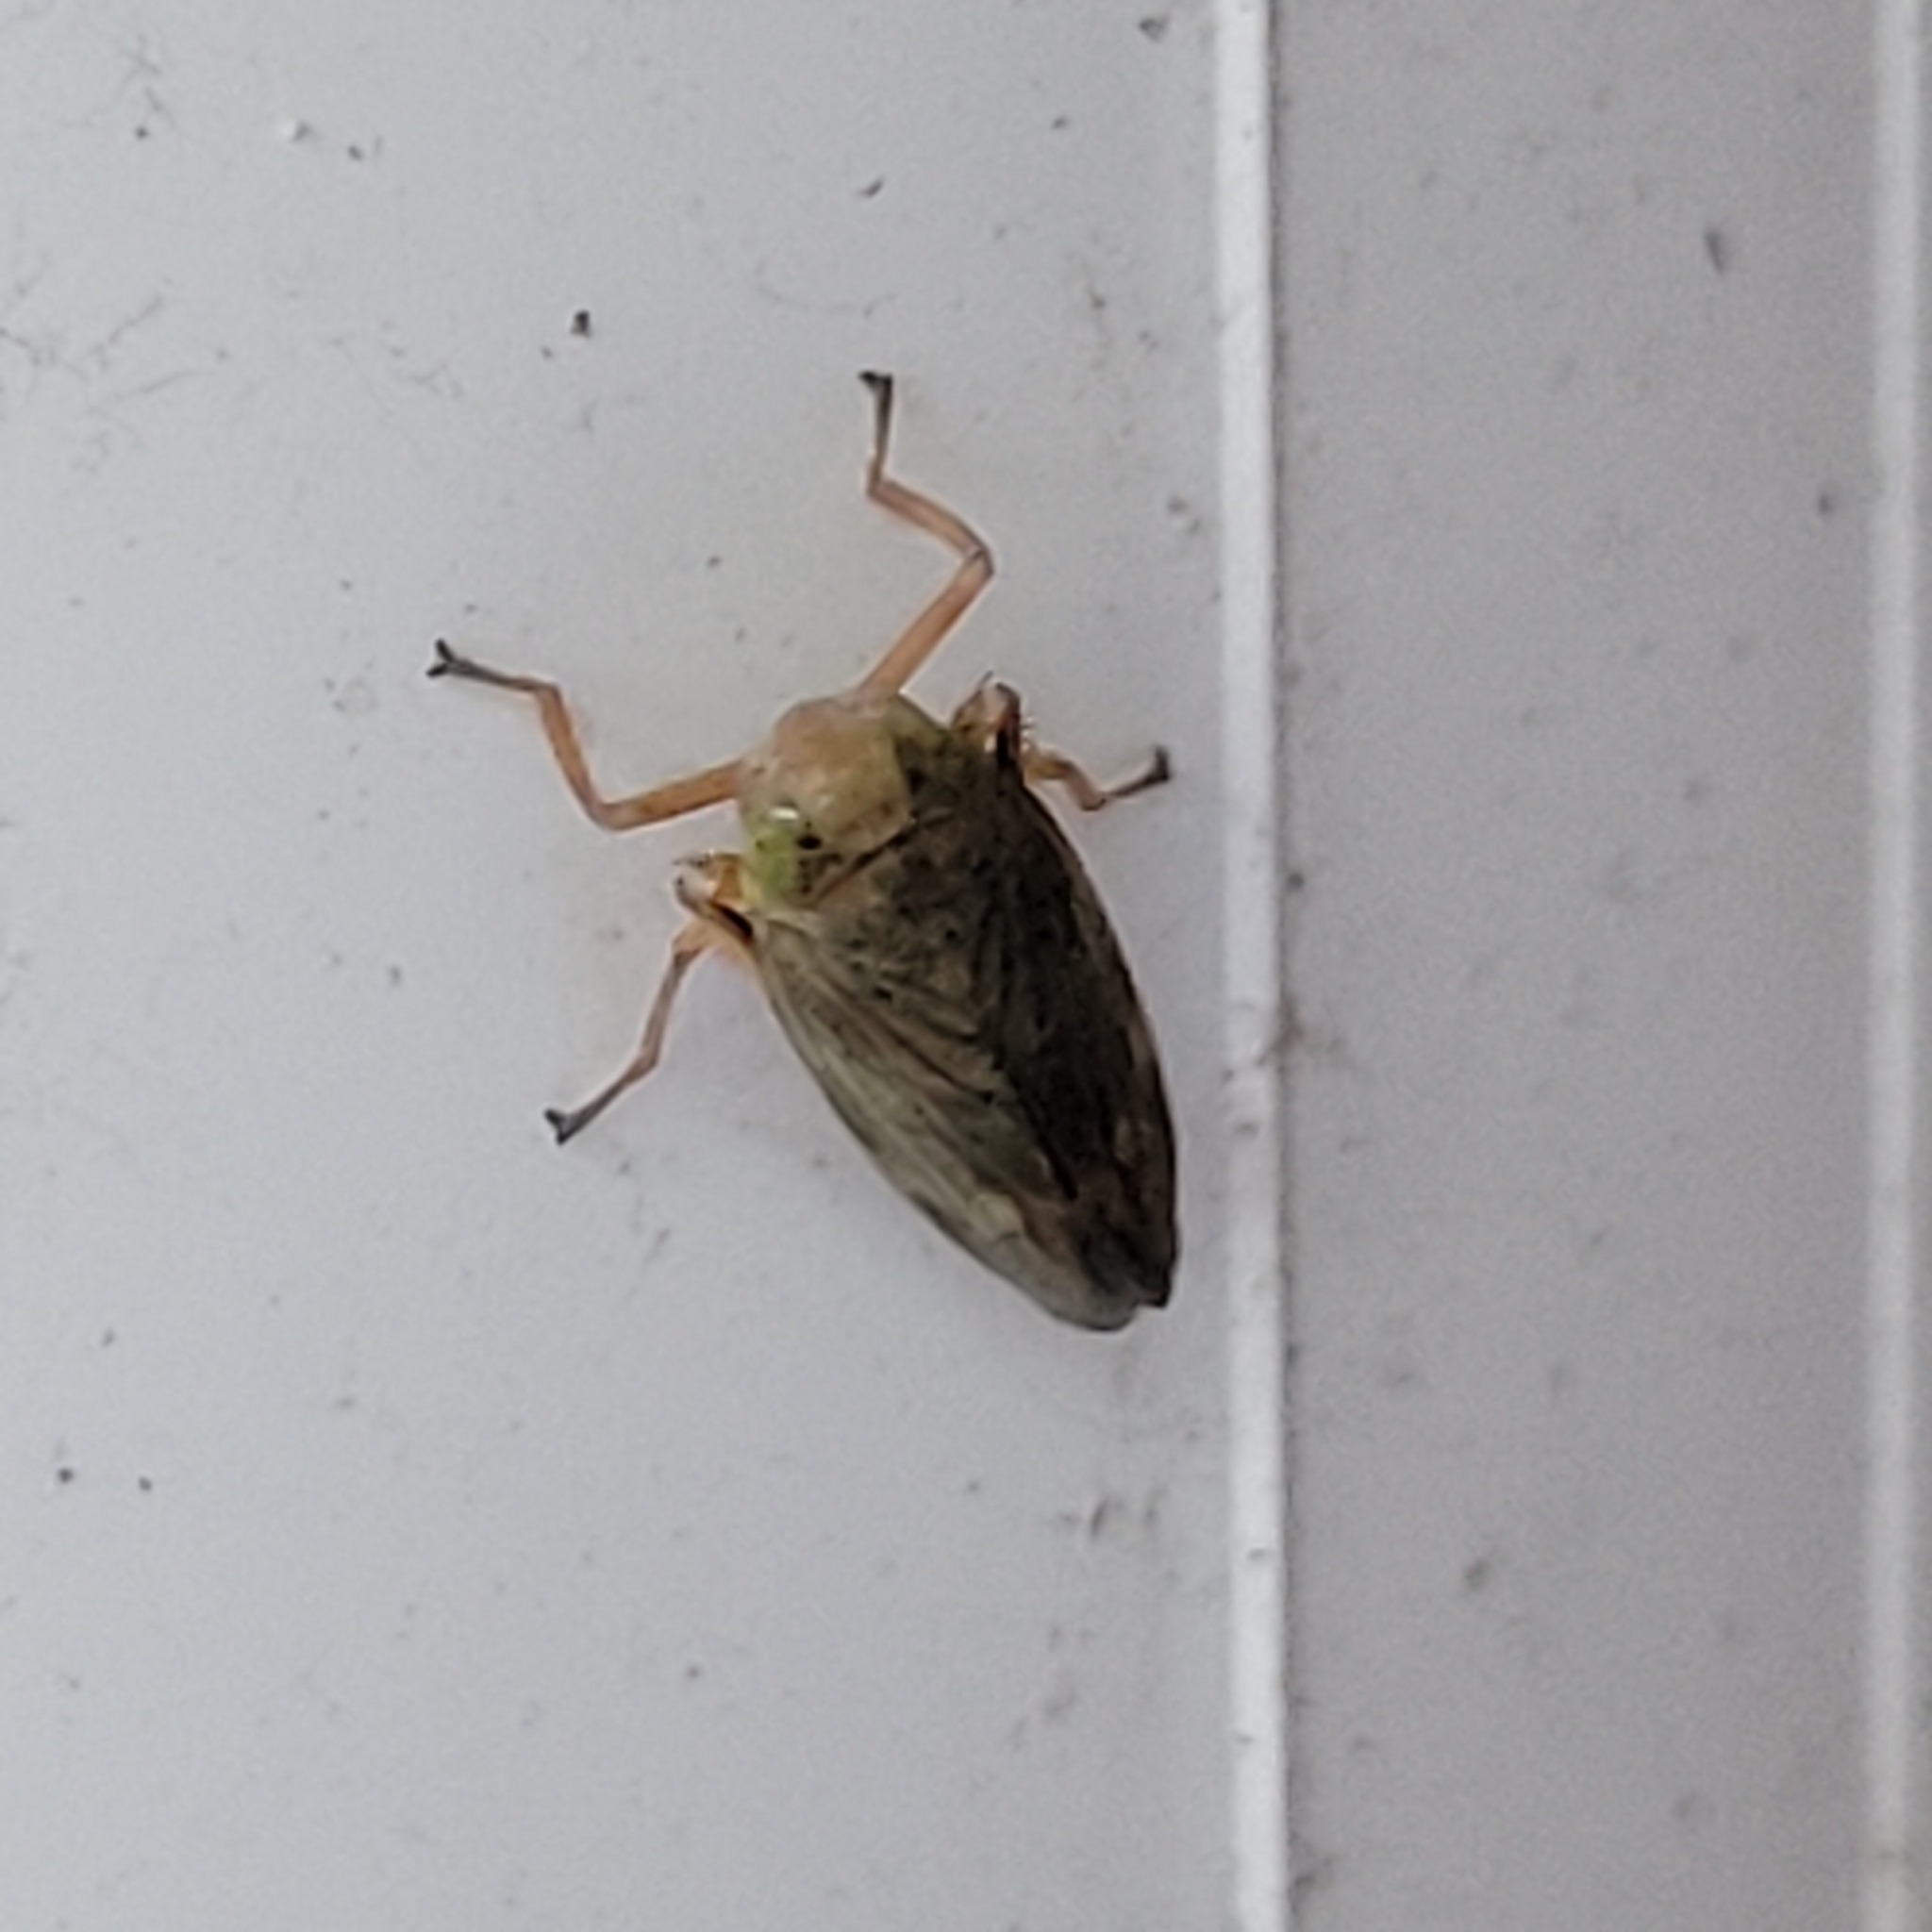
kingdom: Animalia
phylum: Arthropoda
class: Insecta
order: Hemiptera
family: Cicadellidae
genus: Jikradia
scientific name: Jikradia olitoria
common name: Coppery leafhopper
